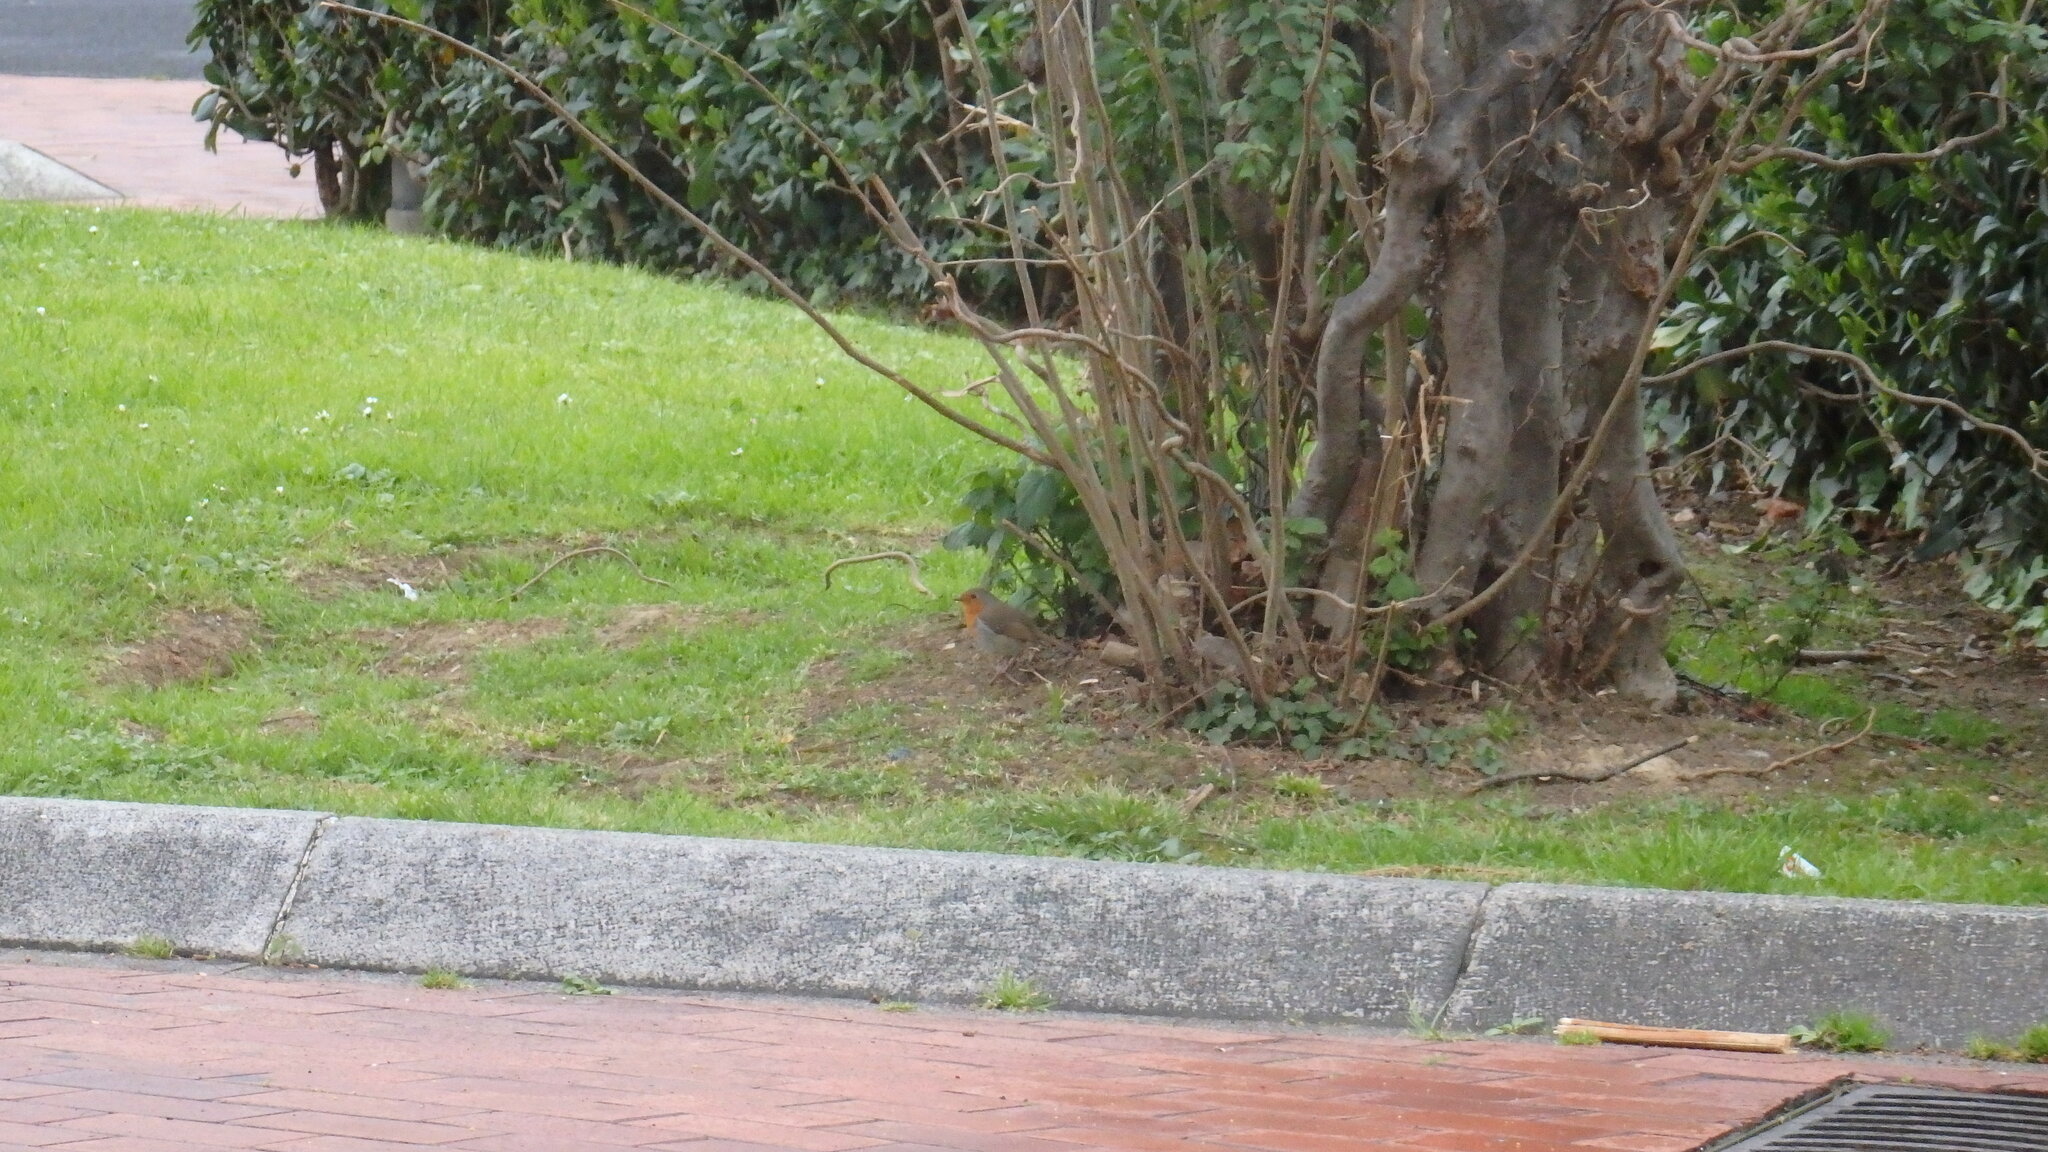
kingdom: Animalia
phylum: Chordata
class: Aves
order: Passeriformes
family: Muscicapidae
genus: Erithacus
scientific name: Erithacus rubecula
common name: European robin
